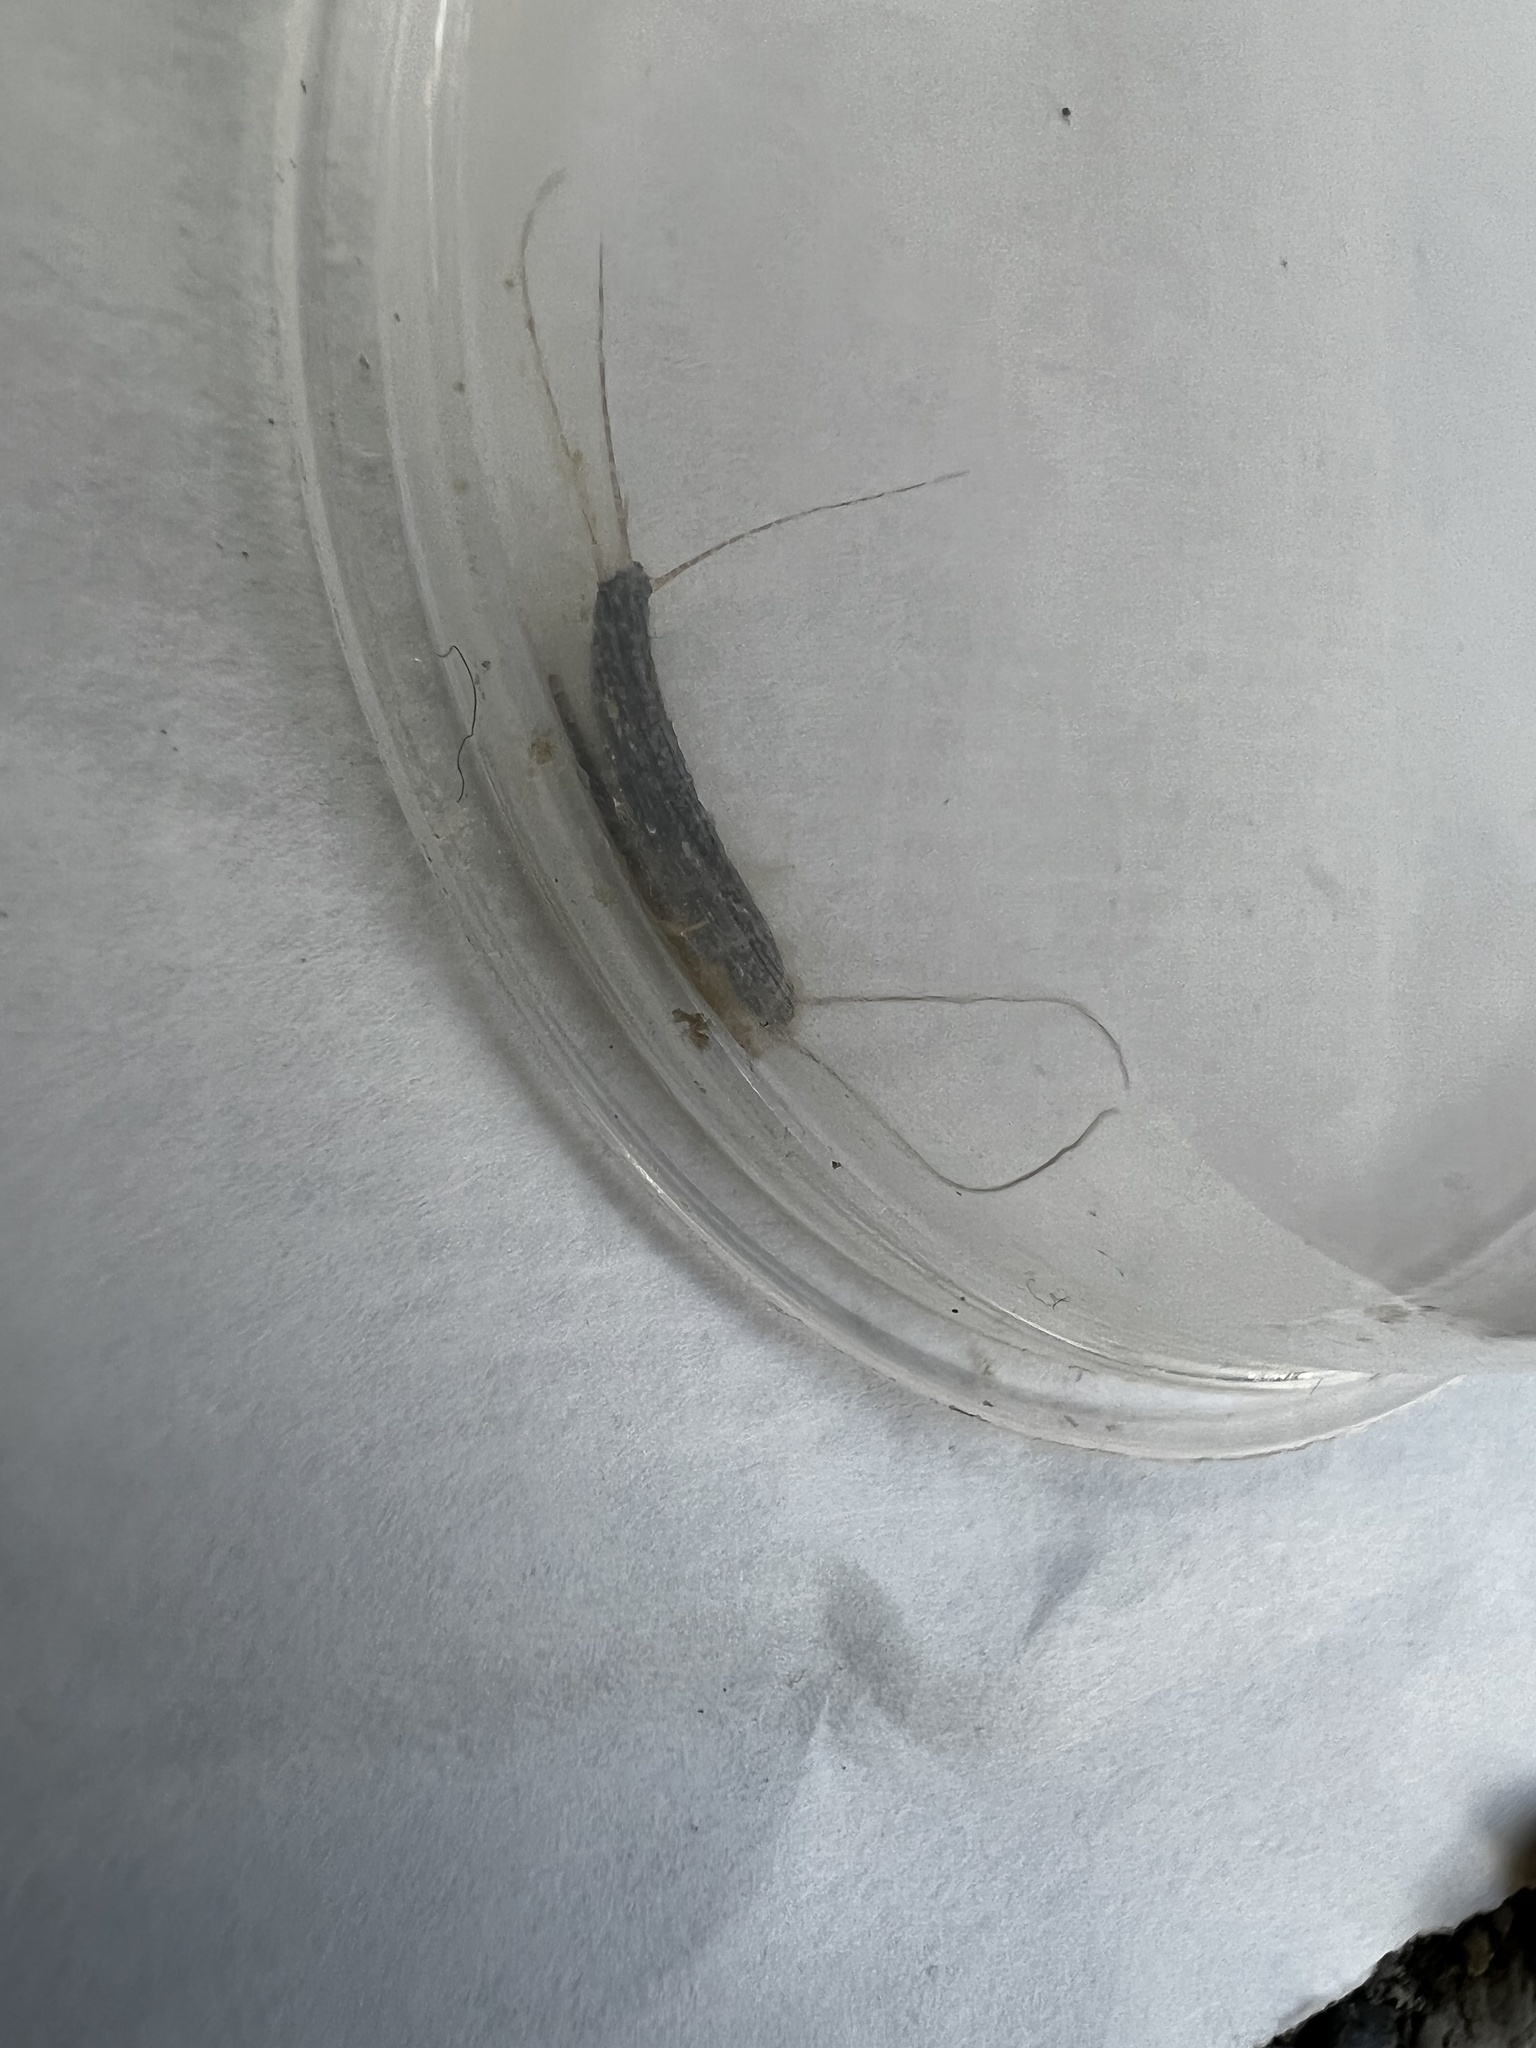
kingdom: Animalia
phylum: Arthropoda
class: Insecta
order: Zygentoma
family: Lepismatidae
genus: Ctenolepisma
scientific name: Ctenolepisma longicaudatum
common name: Silverfish
